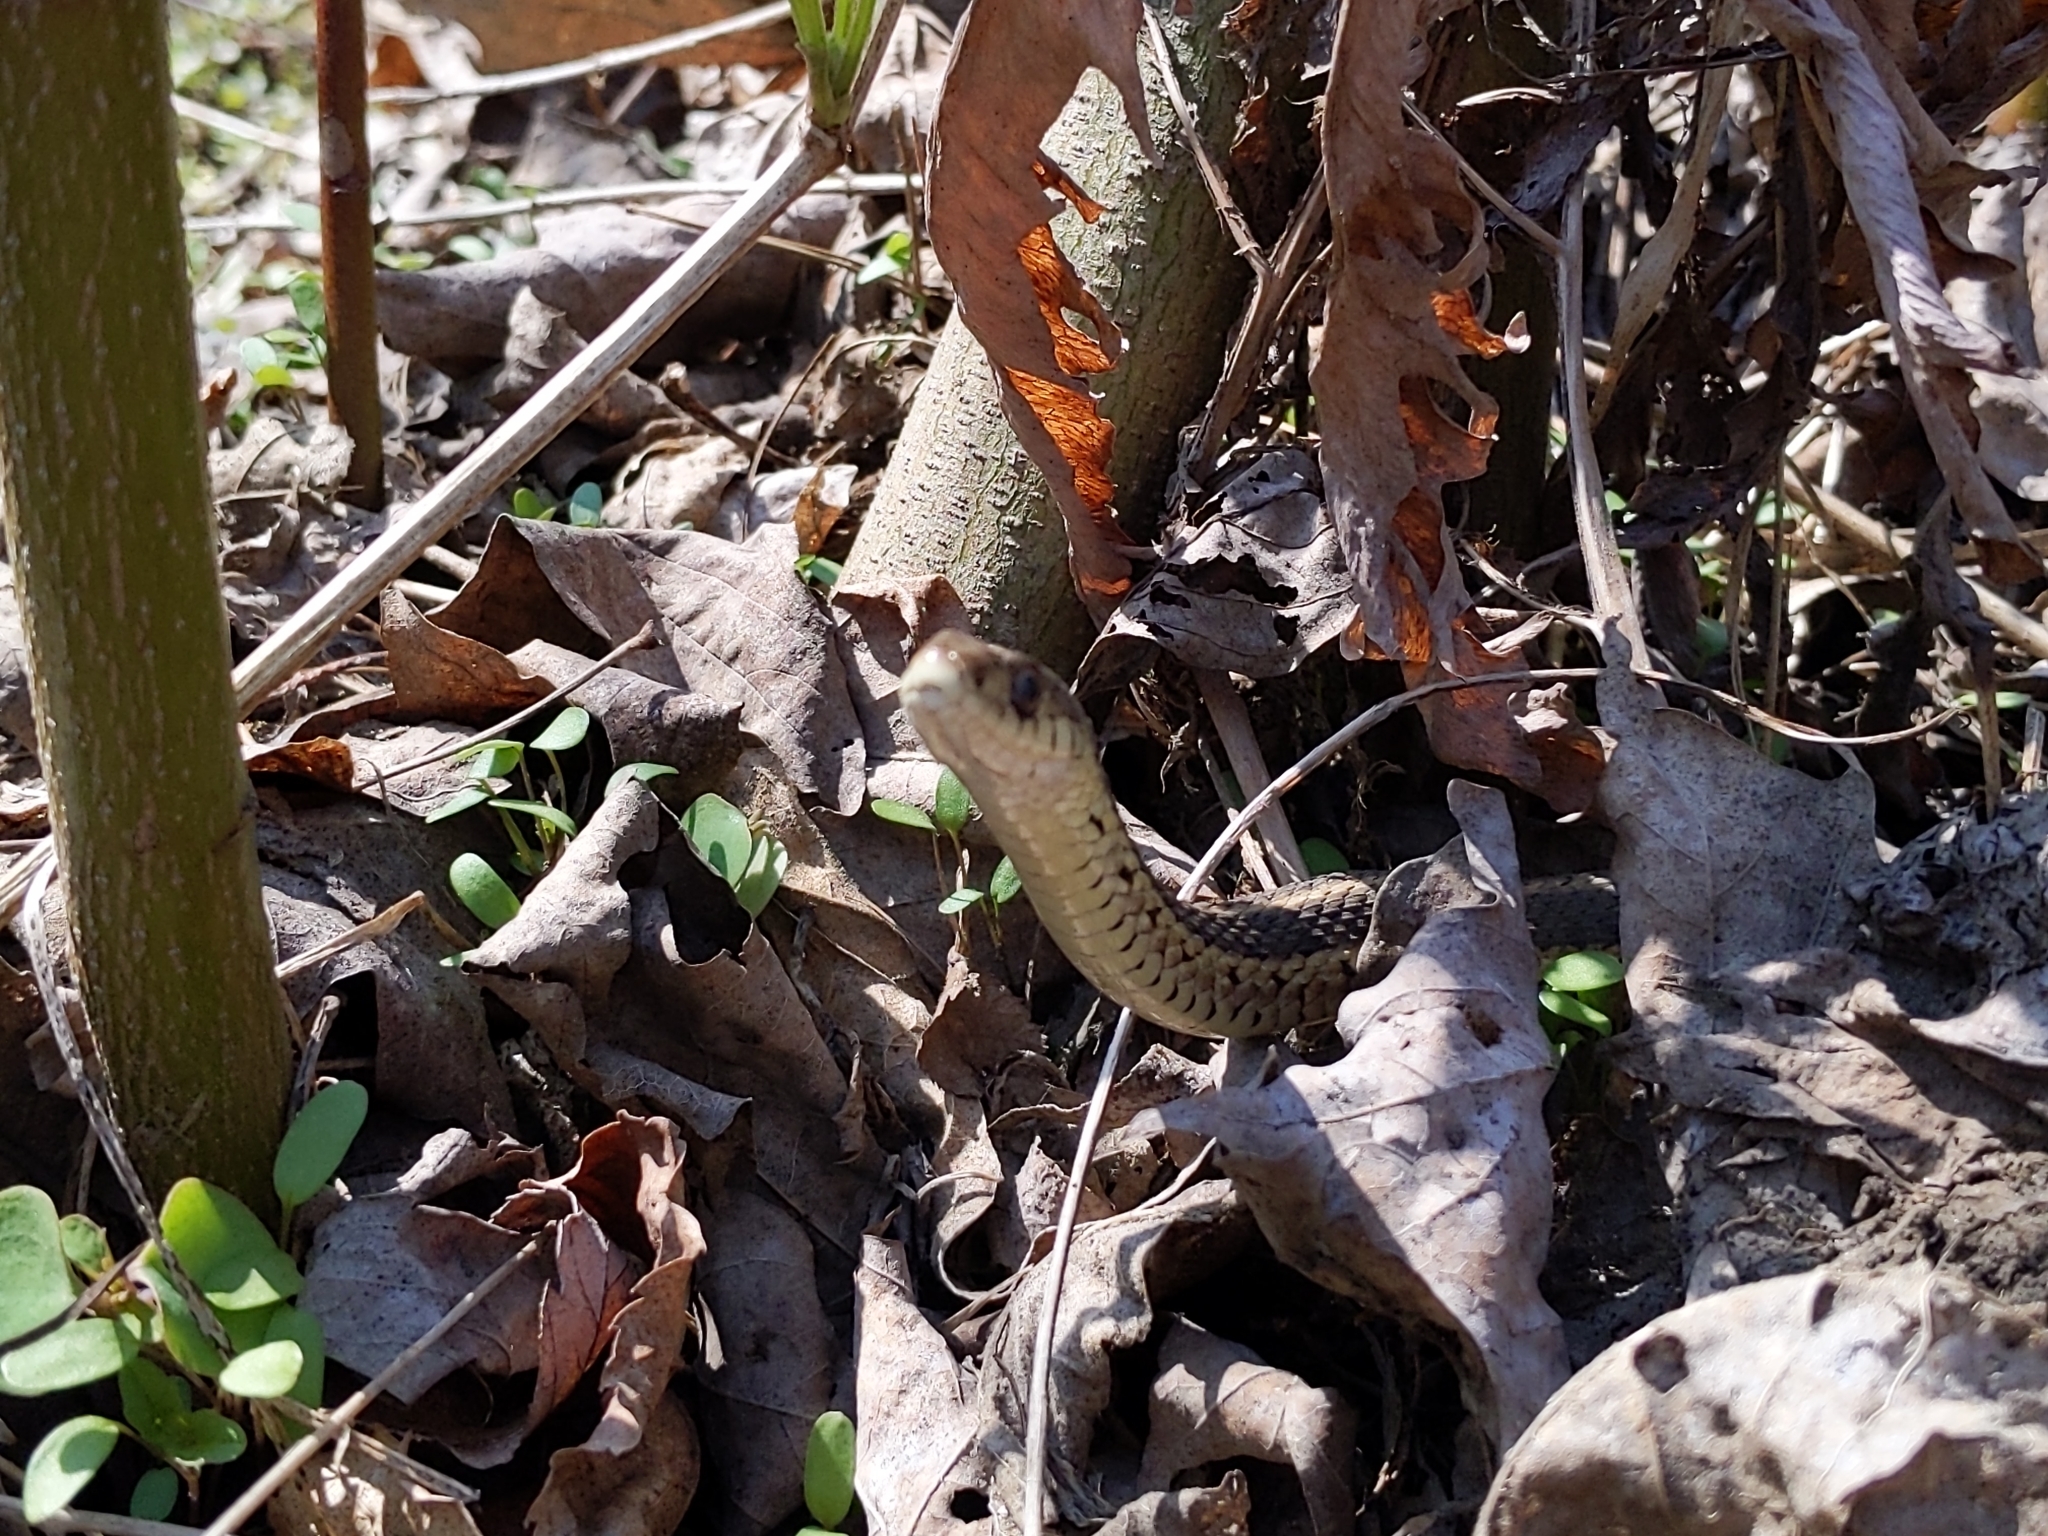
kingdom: Animalia
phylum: Chordata
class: Squamata
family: Colubridae
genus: Thamnophis
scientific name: Thamnophis sirtalis
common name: Common garter snake
